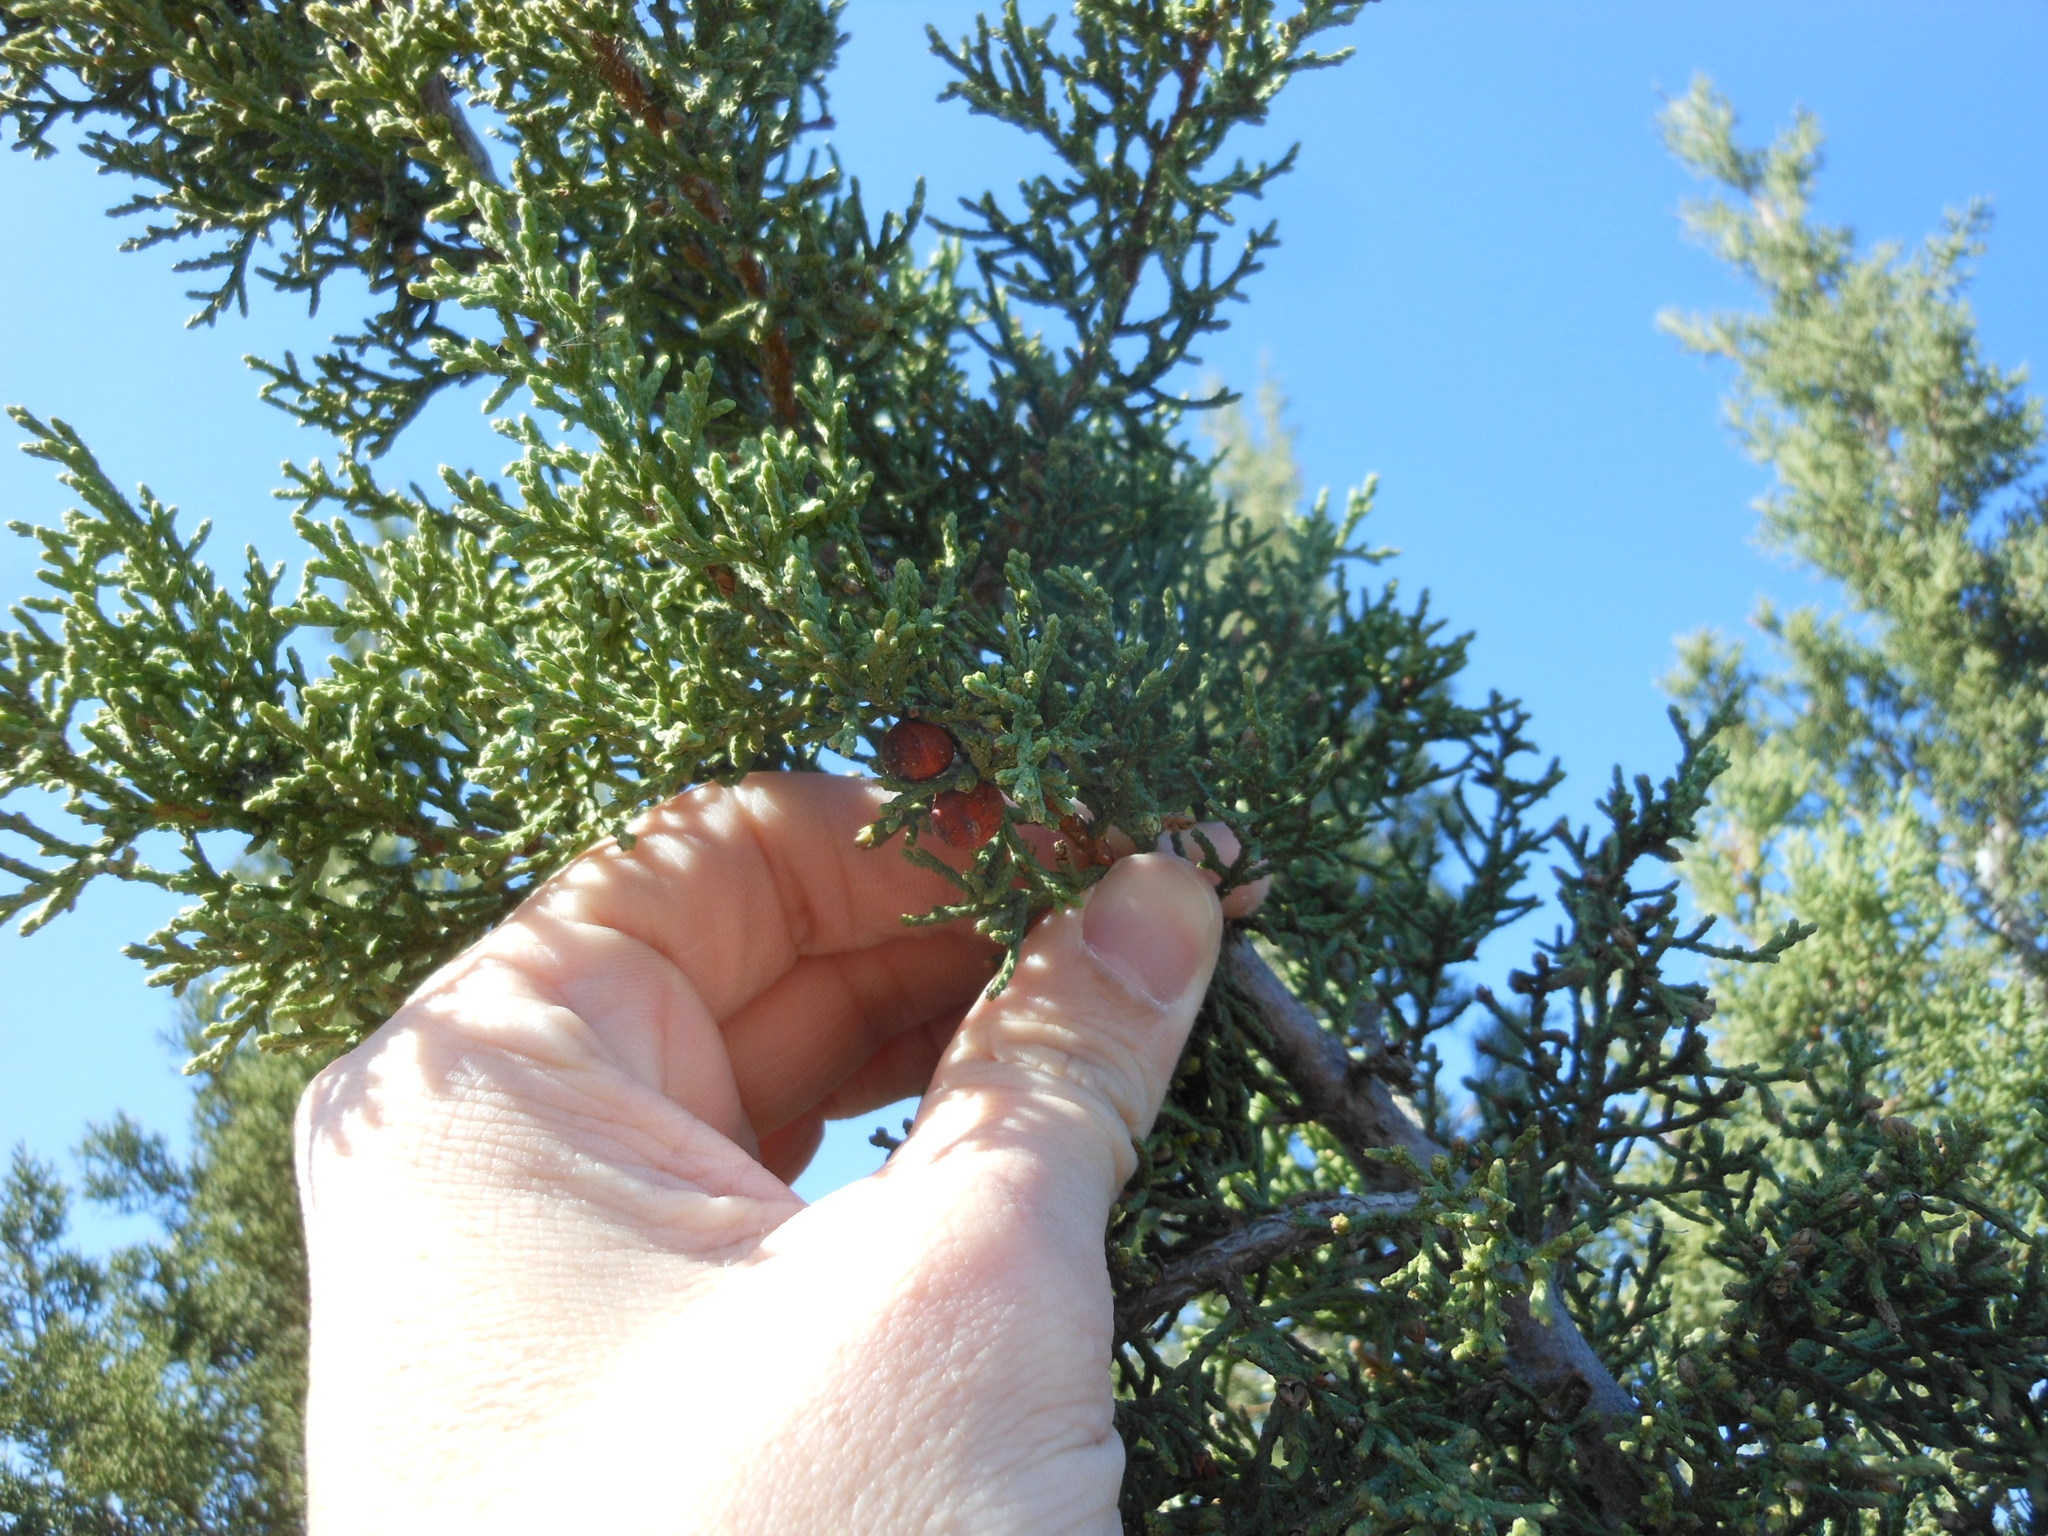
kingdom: Plantae
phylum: Tracheophyta
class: Pinopsida
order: Pinales
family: Cupressaceae
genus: Juniperus
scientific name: Juniperus pinchotii
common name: Pinchot juniper
